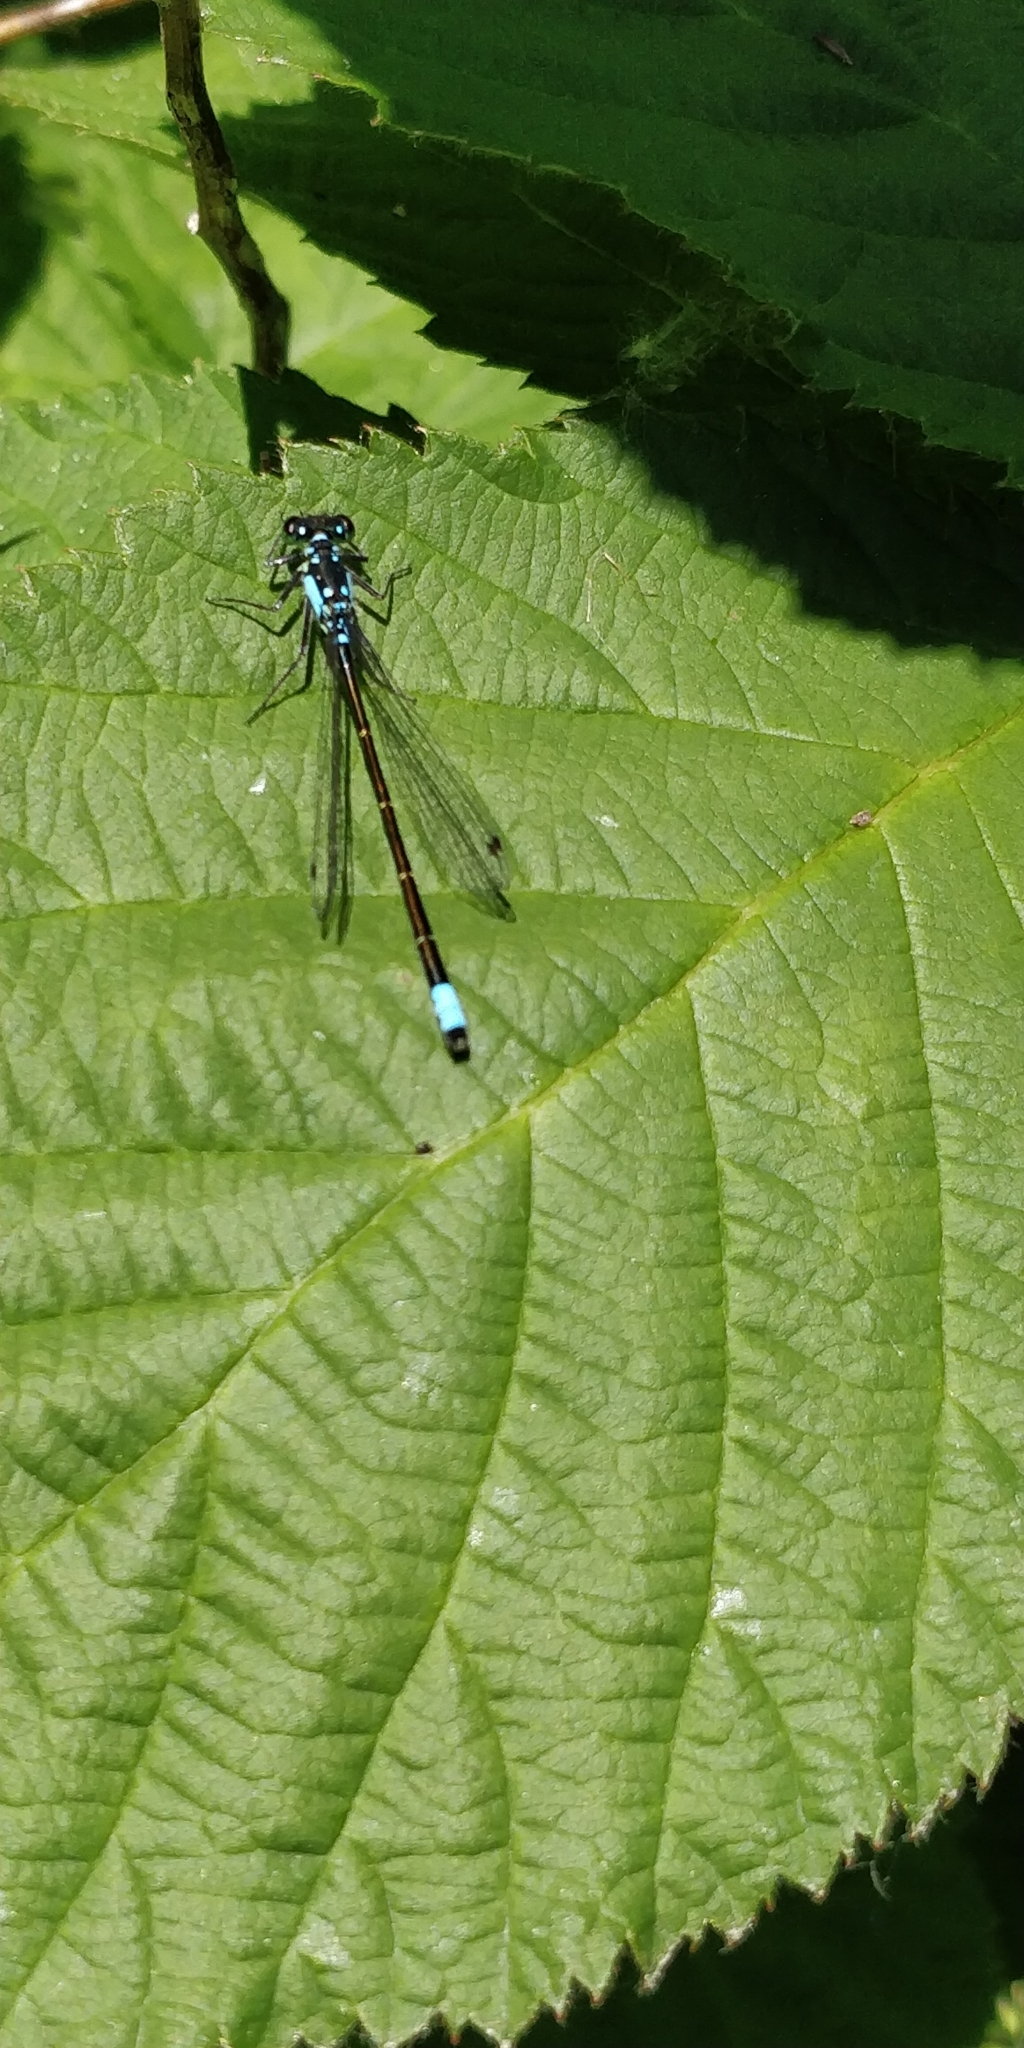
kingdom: Animalia
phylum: Arthropoda
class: Insecta
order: Odonata
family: Coenagrionidae
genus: Ischnura
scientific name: Ischnura cervula
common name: Pacific forktail
